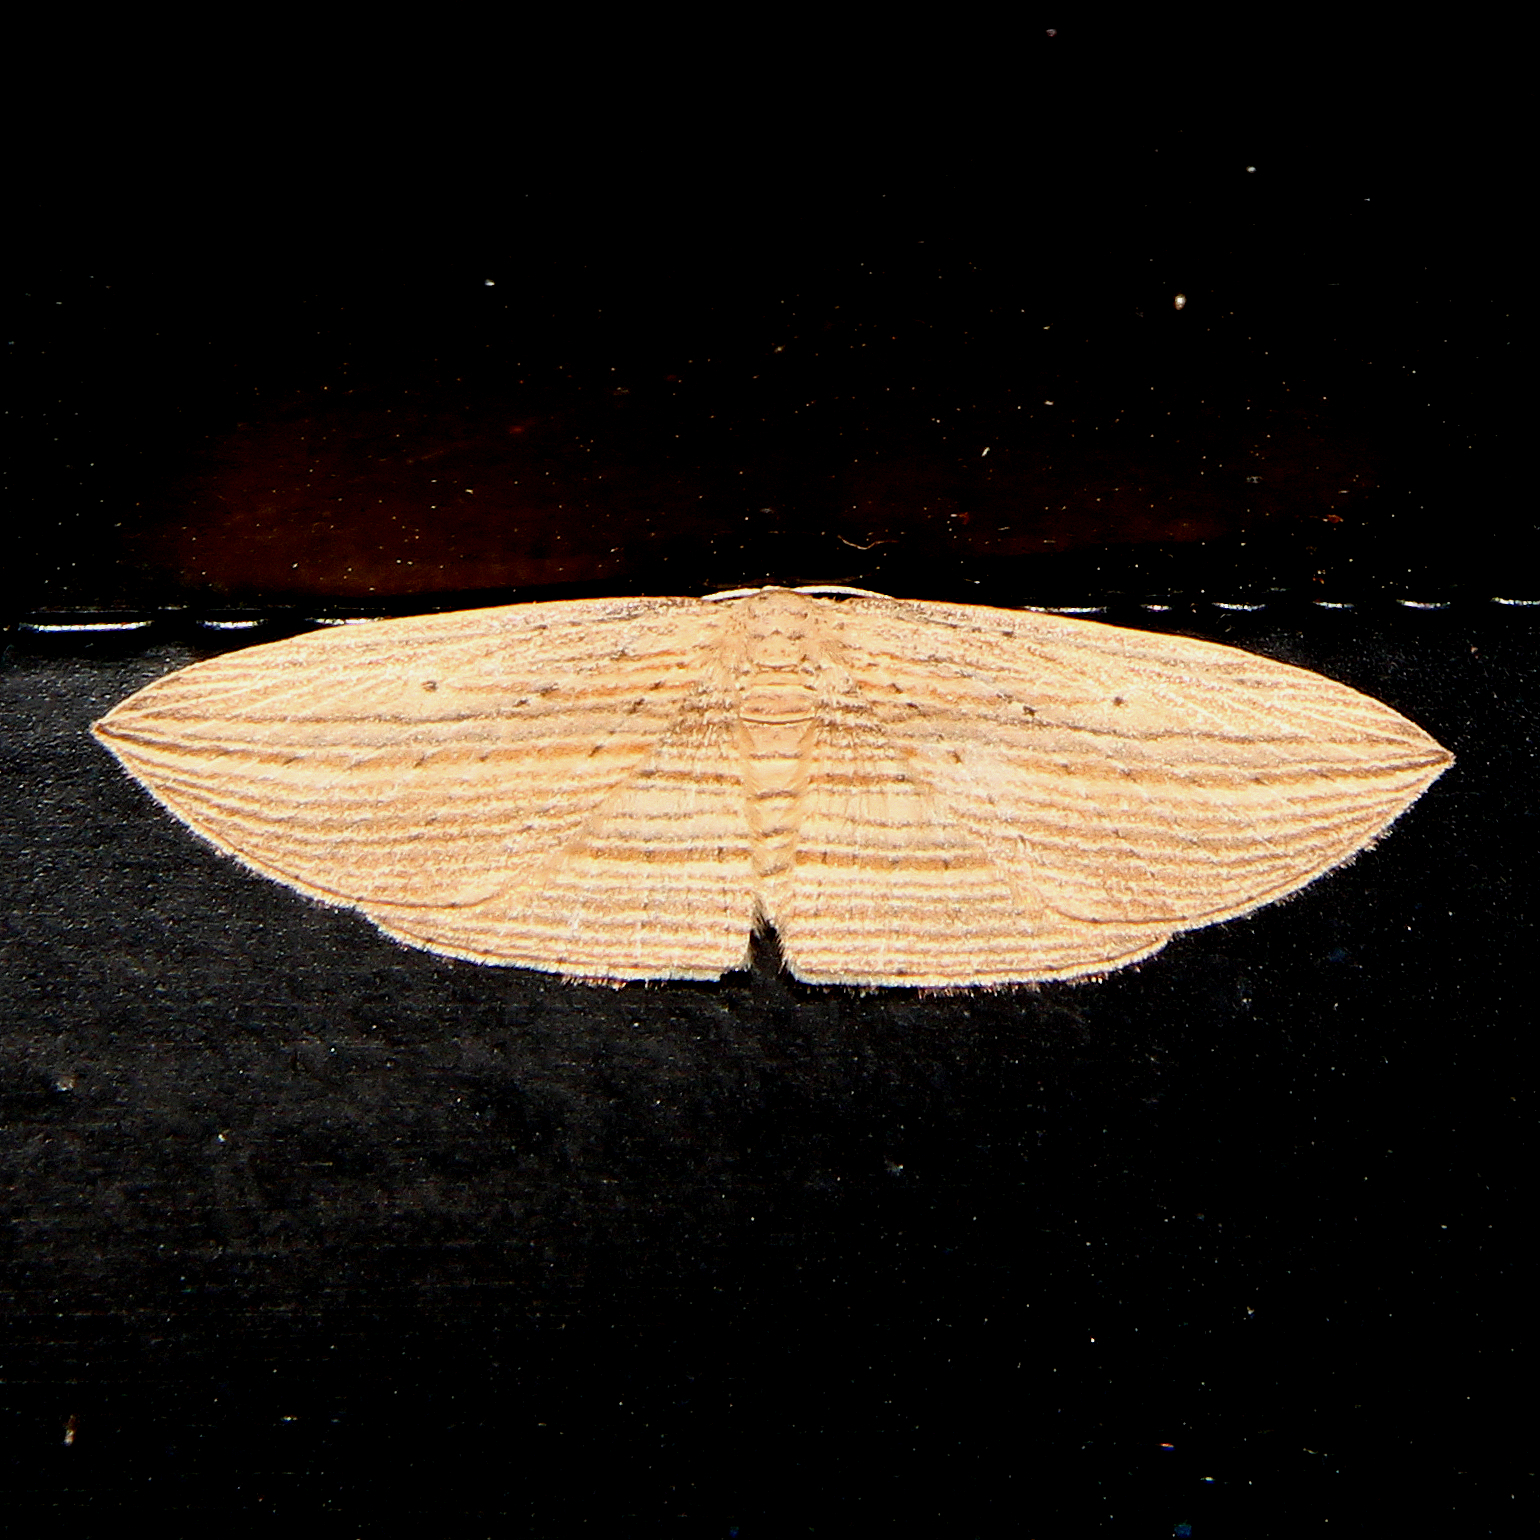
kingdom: Animalia
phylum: Arthropoda
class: Insecta
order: Lepidoptera
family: Geometridae
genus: Epiphryne
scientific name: Epiphryne verriculata
